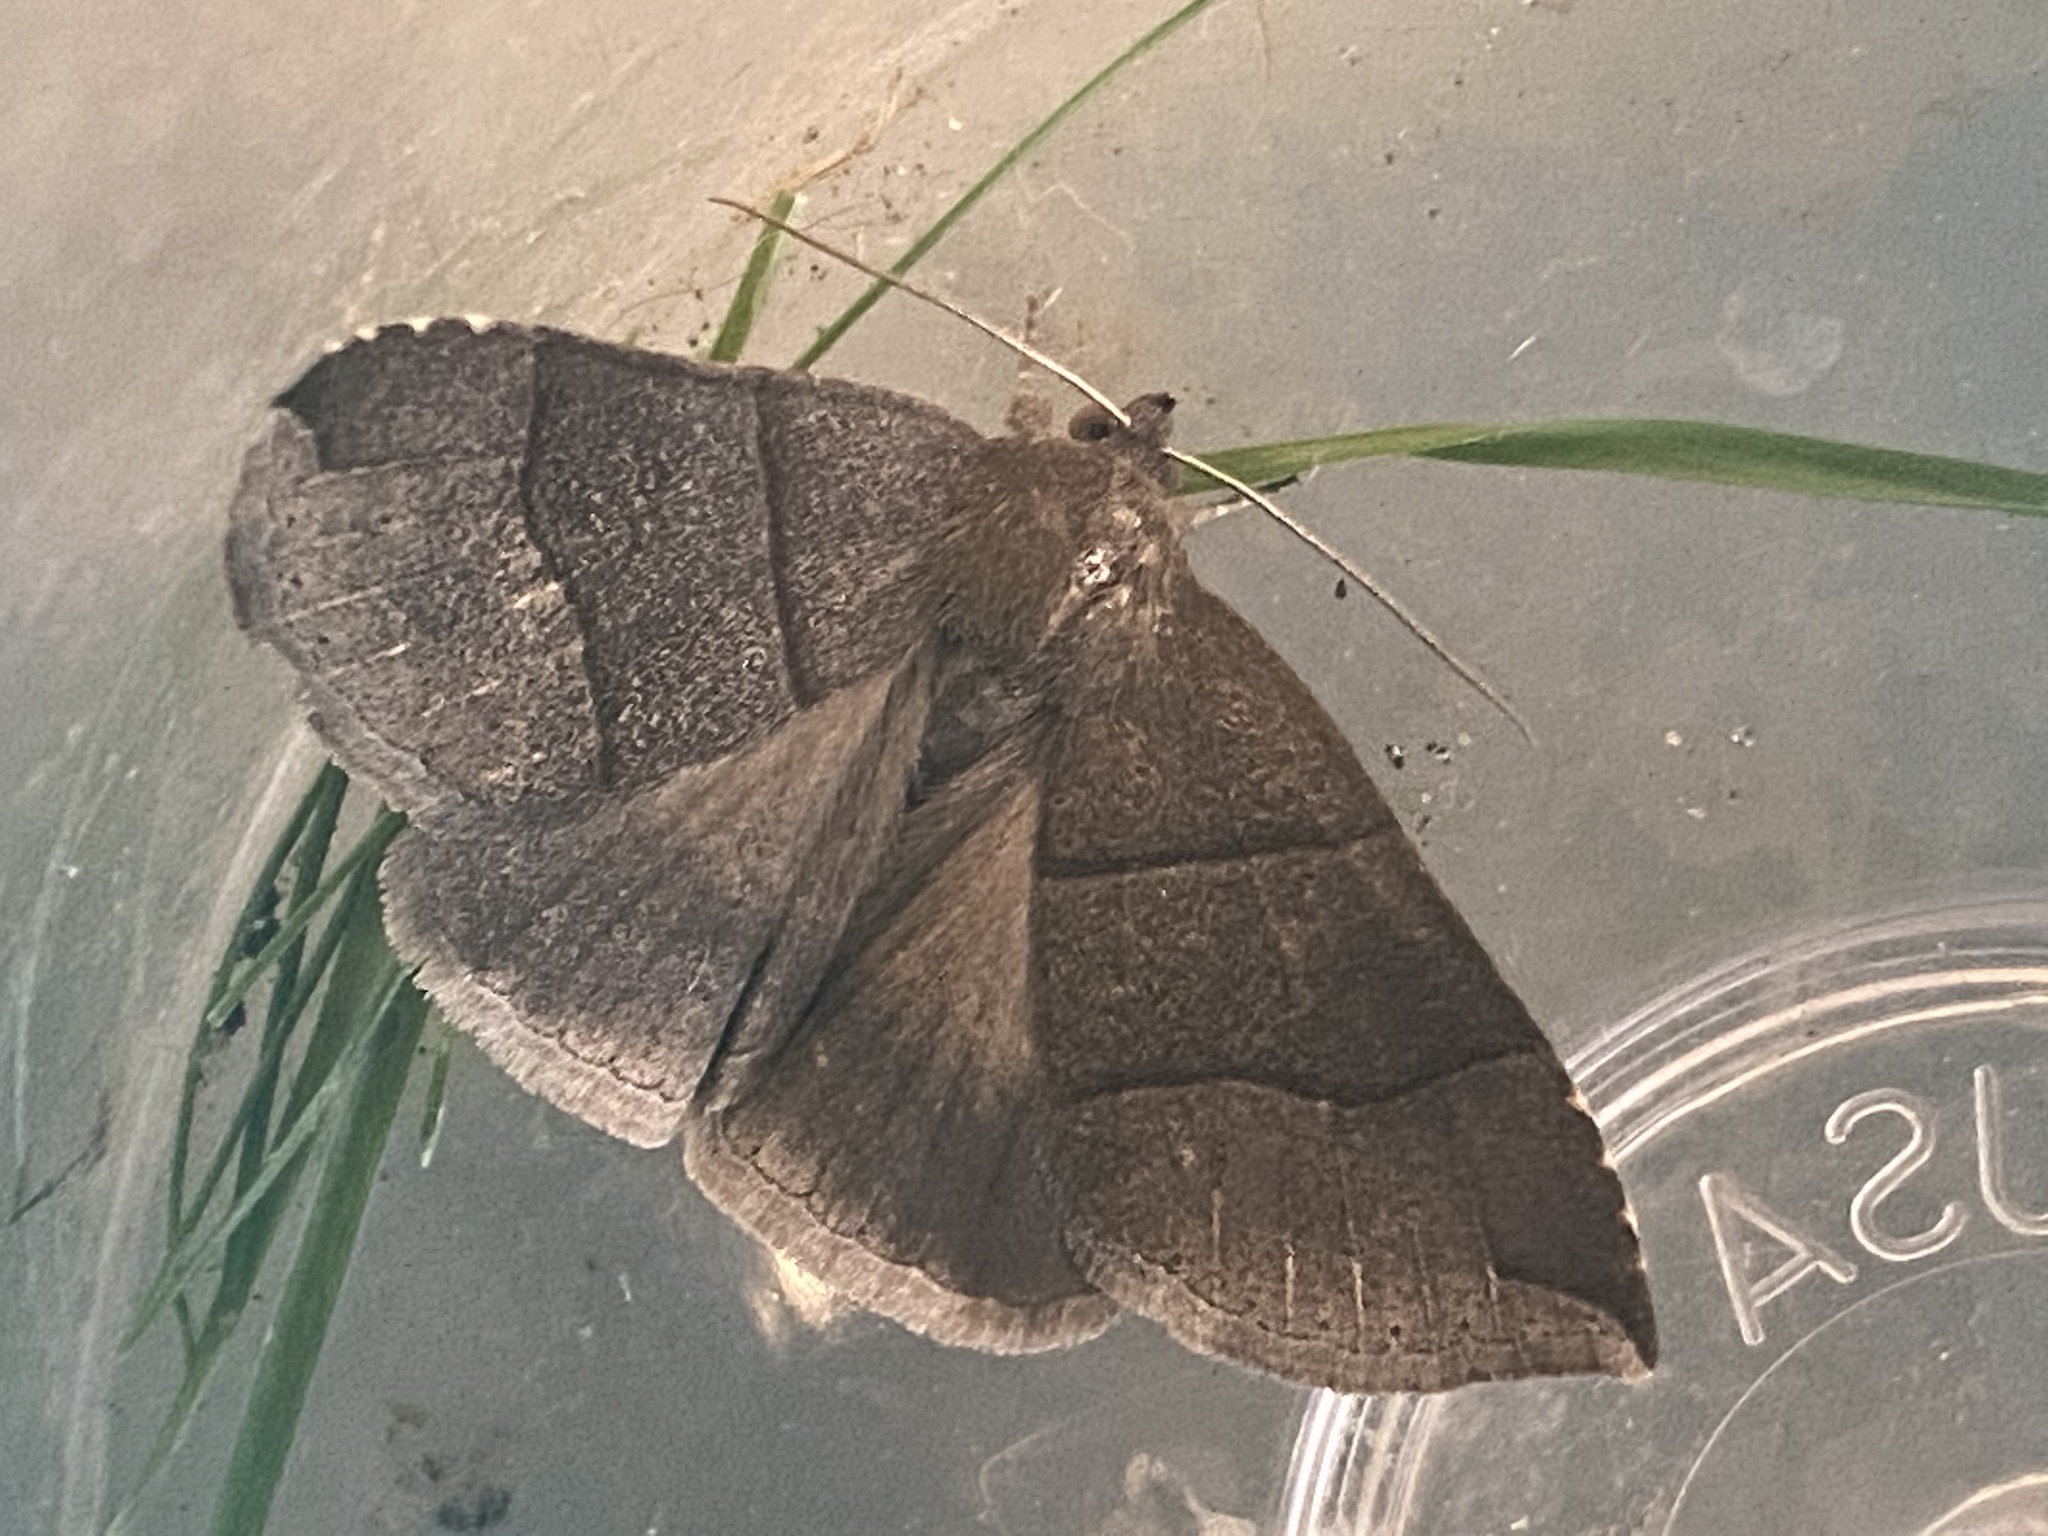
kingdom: Animalia
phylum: Arthropoda
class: Insecta
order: Lepidoptera
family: Erebidae
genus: Parallelia
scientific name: Parallelia bistriaris
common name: Maple looper moth
